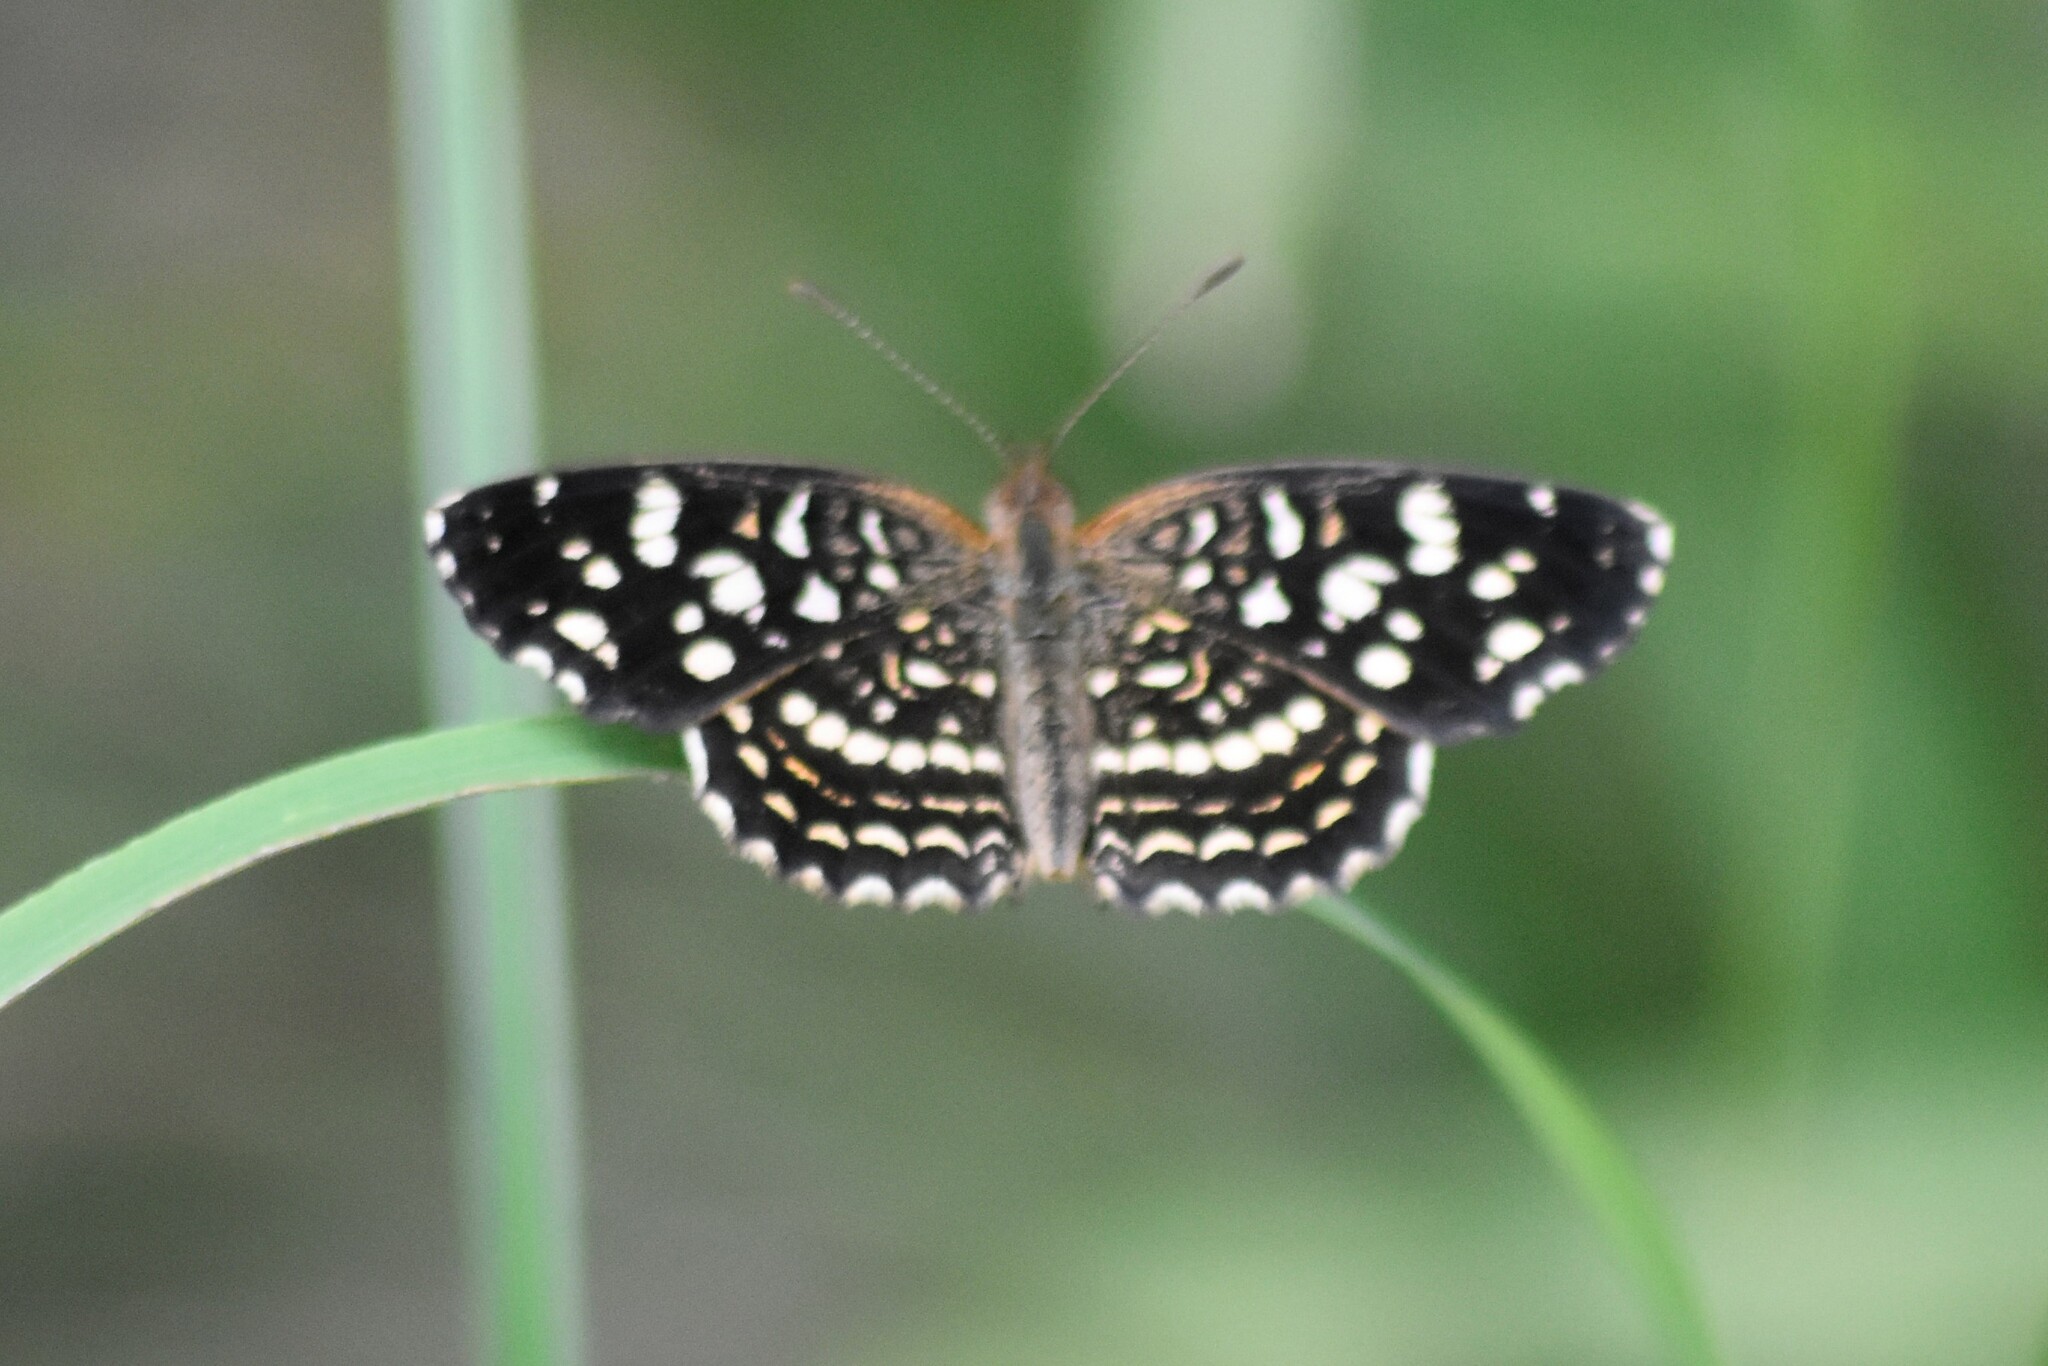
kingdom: Animalia
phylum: Arthropoda
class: Insecta
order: Lepidoptera
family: Nymphalidae
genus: Anthanassa
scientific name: Anthanassa hermas
